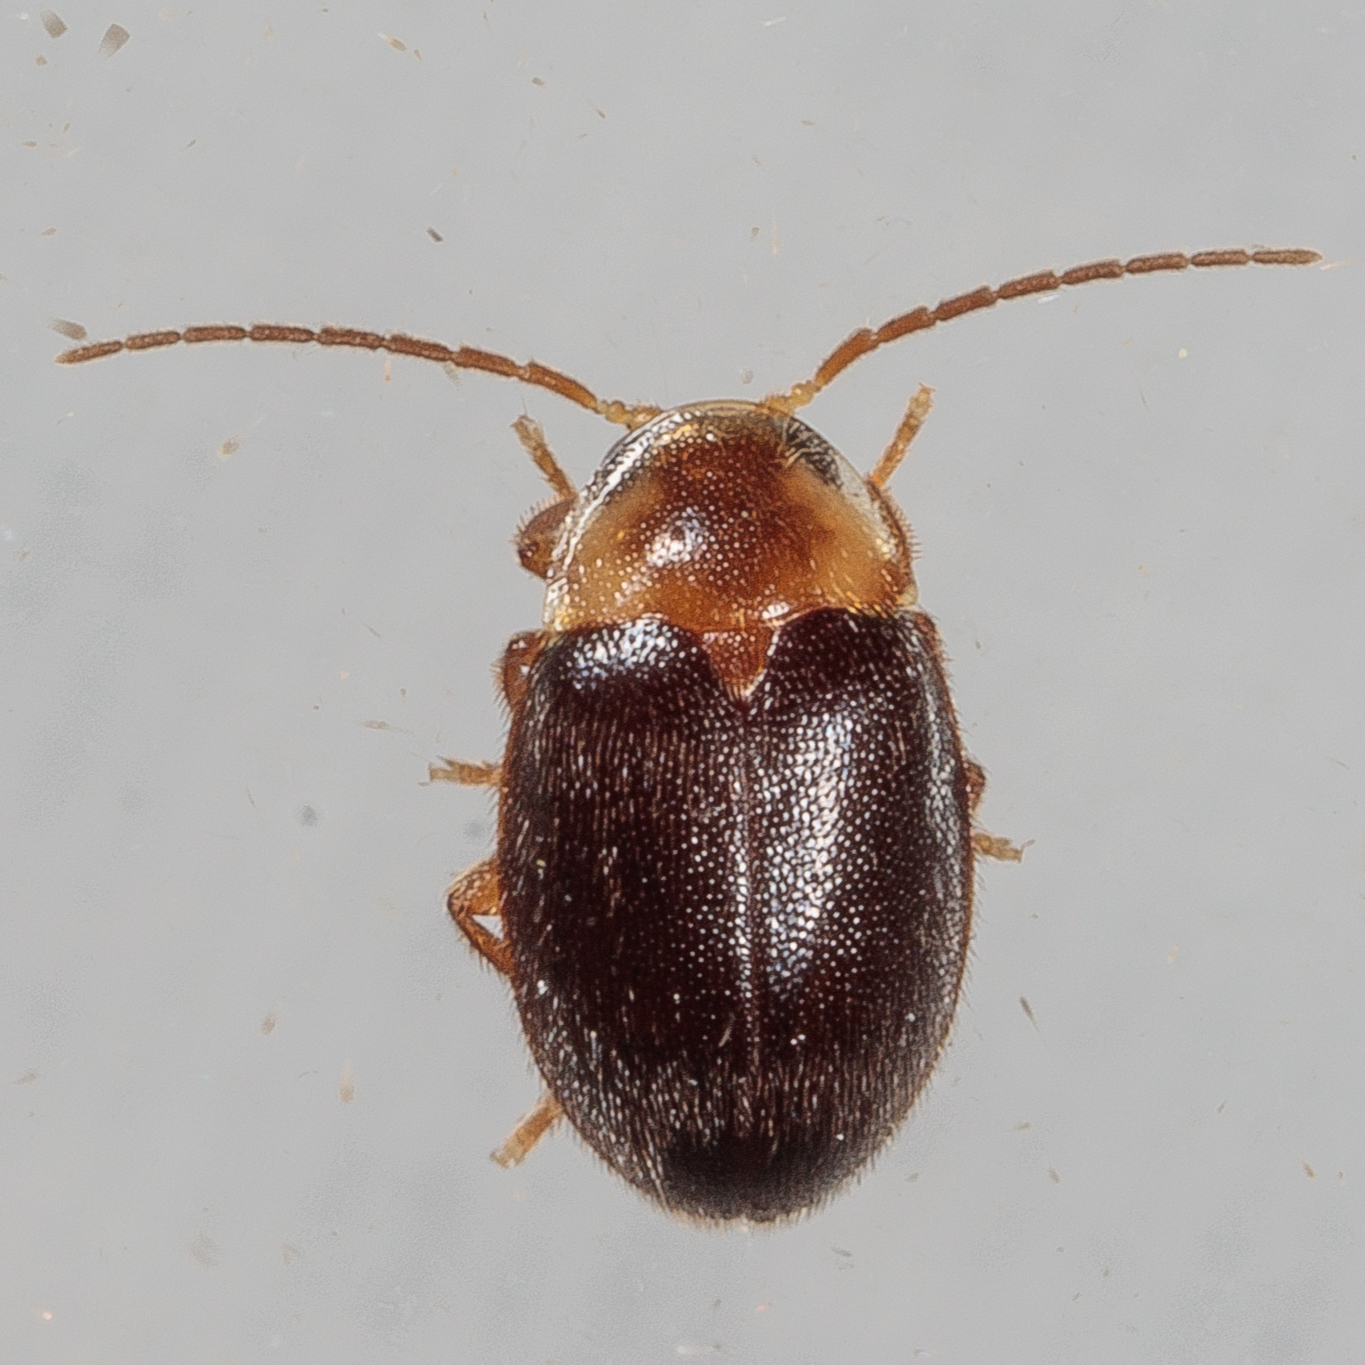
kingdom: Animalia
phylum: Arthropoda
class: Insecta
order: Coleoptera
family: Scirtidae
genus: Sacodes
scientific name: Sacodes pulchella
